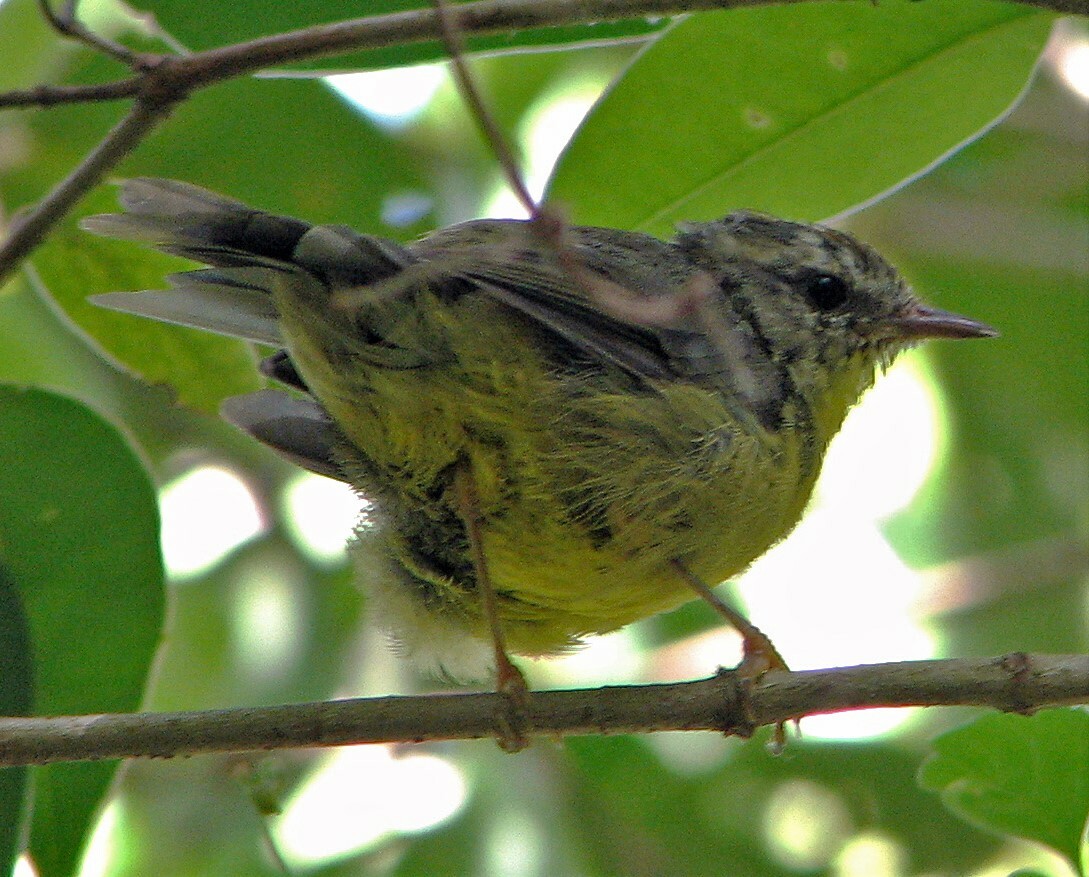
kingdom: Animalia
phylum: Chordata
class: Aves
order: Passeriformes
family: Parulidae
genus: Basileuterus
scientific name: Basileuterus culicivorus
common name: Golden-crowned warbler
